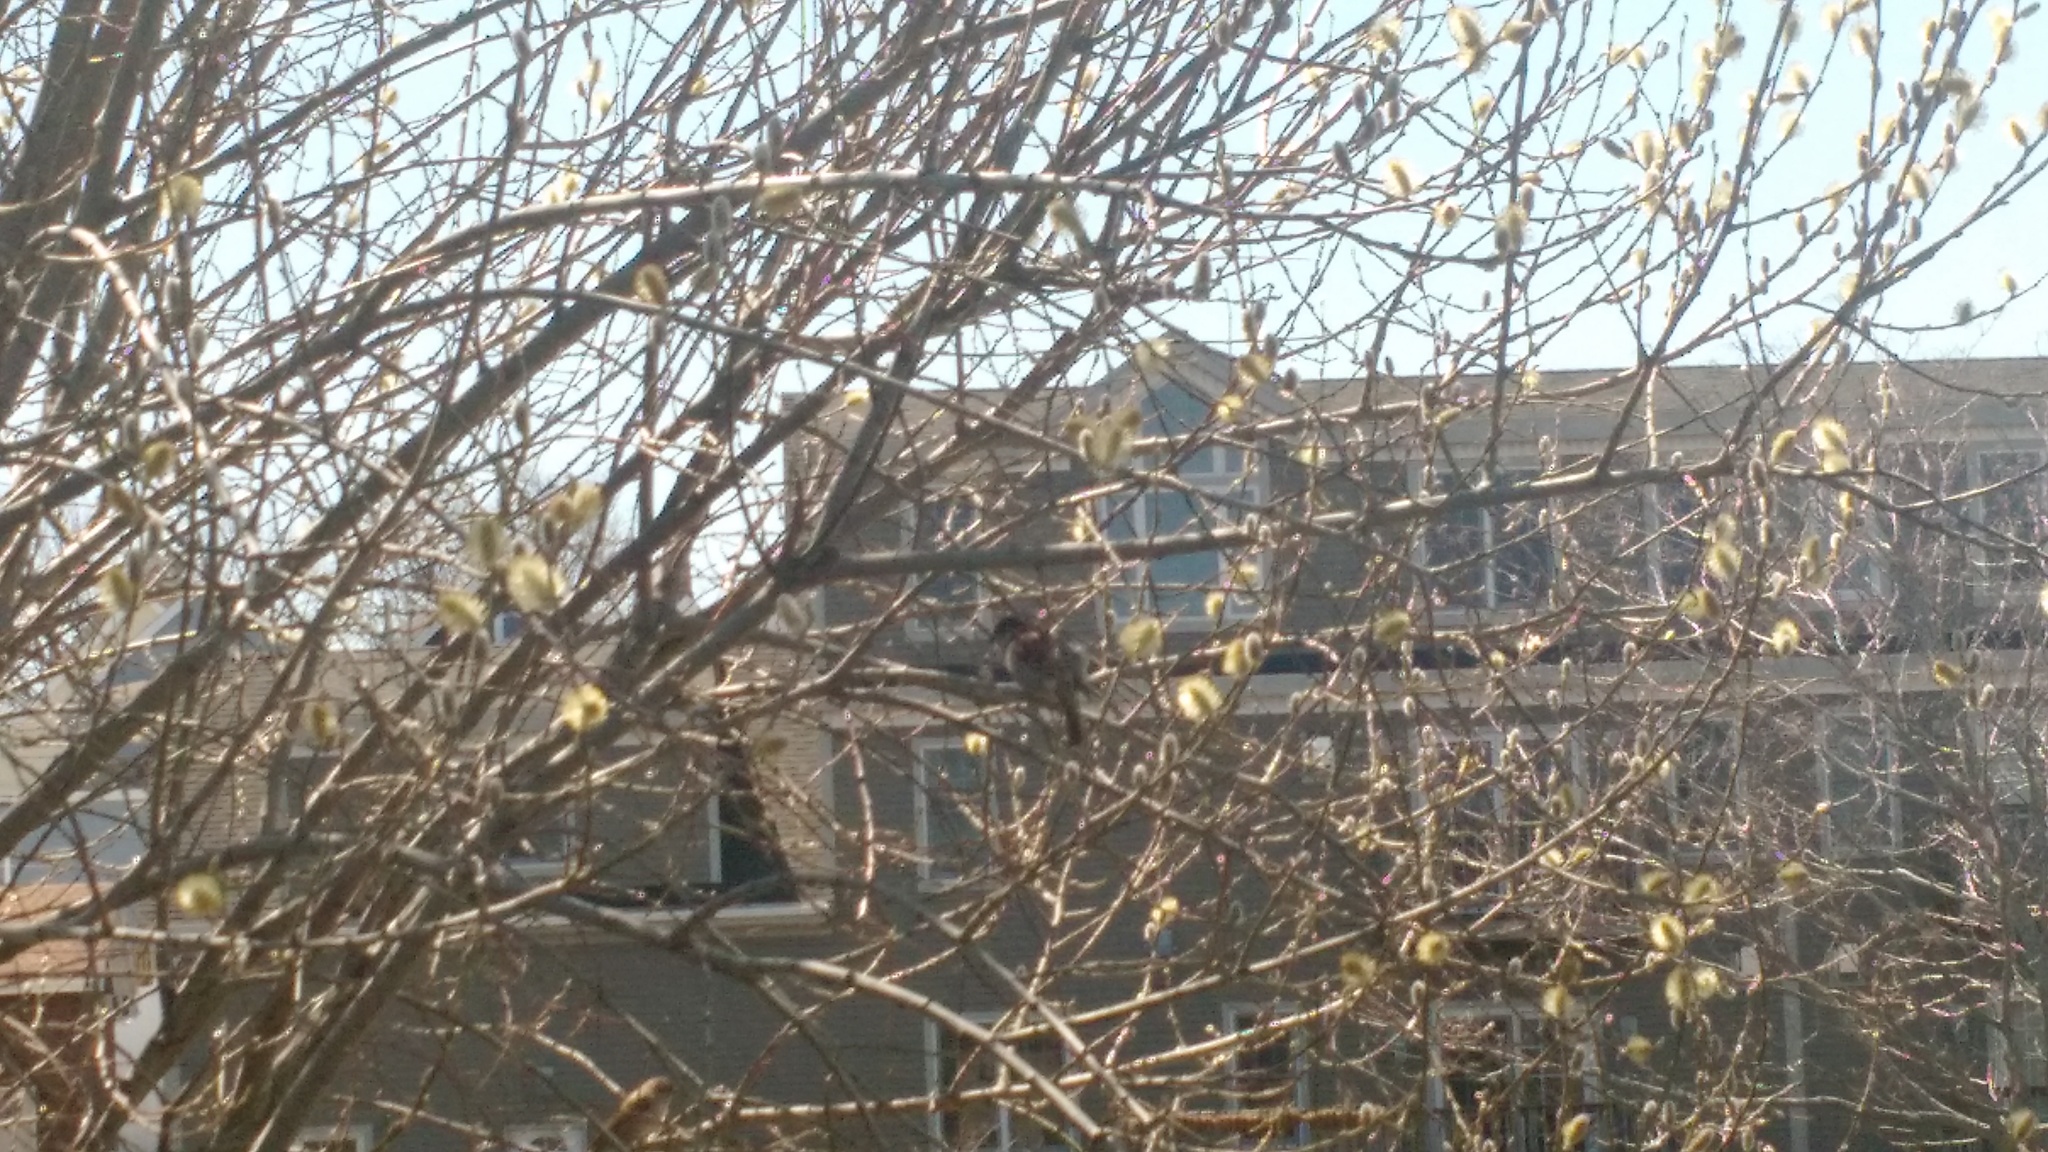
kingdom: Animalia
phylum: Chordata
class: Aves
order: Passeriformes
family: Passeridae
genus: Passer
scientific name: Passer domesticus
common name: House sparrow
